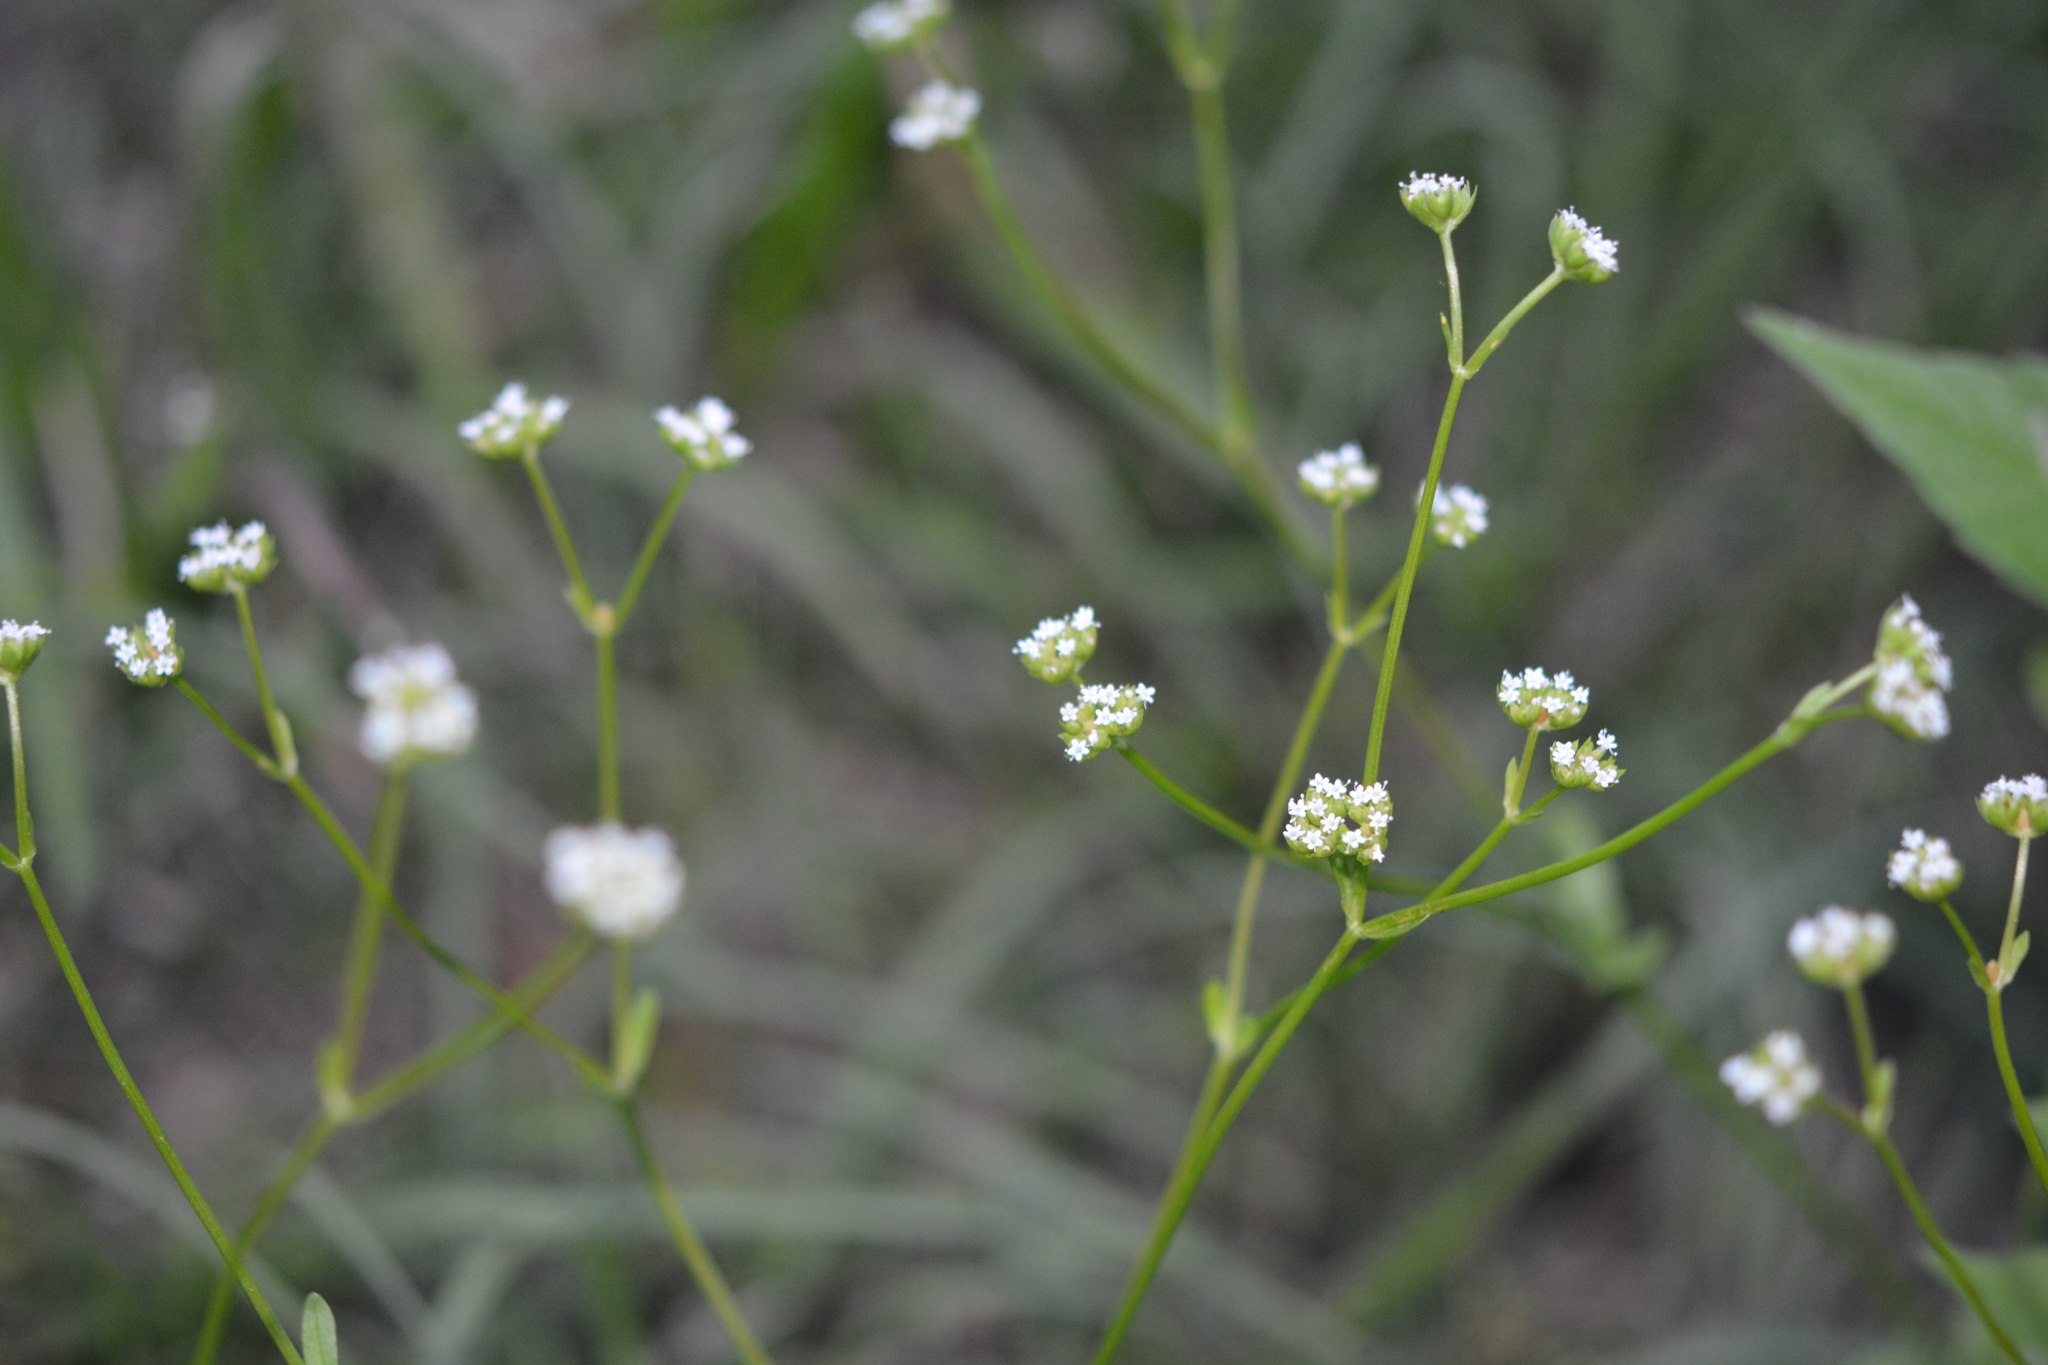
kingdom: Plantae
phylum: Tracheophyta
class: Magnoliopsida
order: Dipsacales
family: Caprifoliaceae
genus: Valerianella
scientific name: Valerianella radiata
